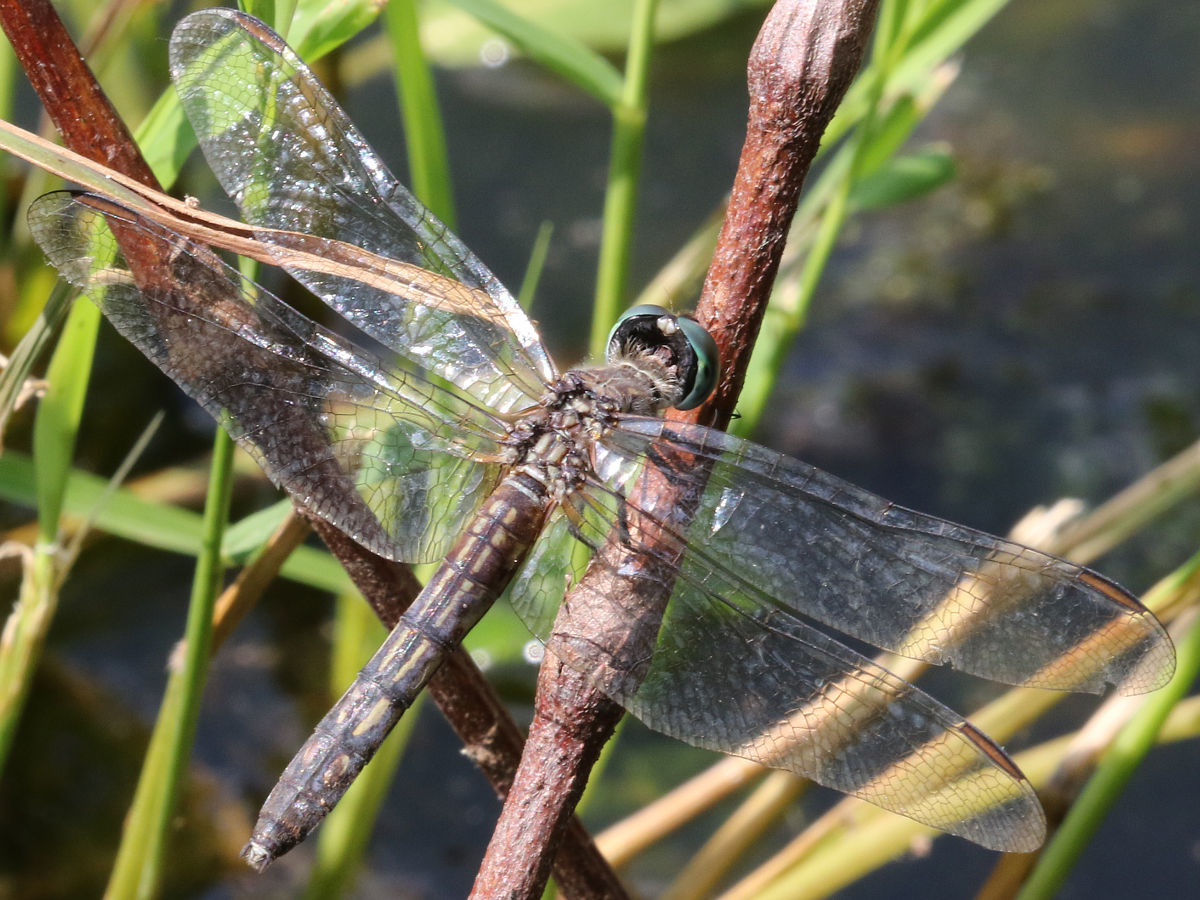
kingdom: Animalia
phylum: Arthropoda
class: Insecta
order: Odonata
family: Libellulidae
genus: Pachydiplax
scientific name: Pachydiplax longipennis
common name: Blue dasher
